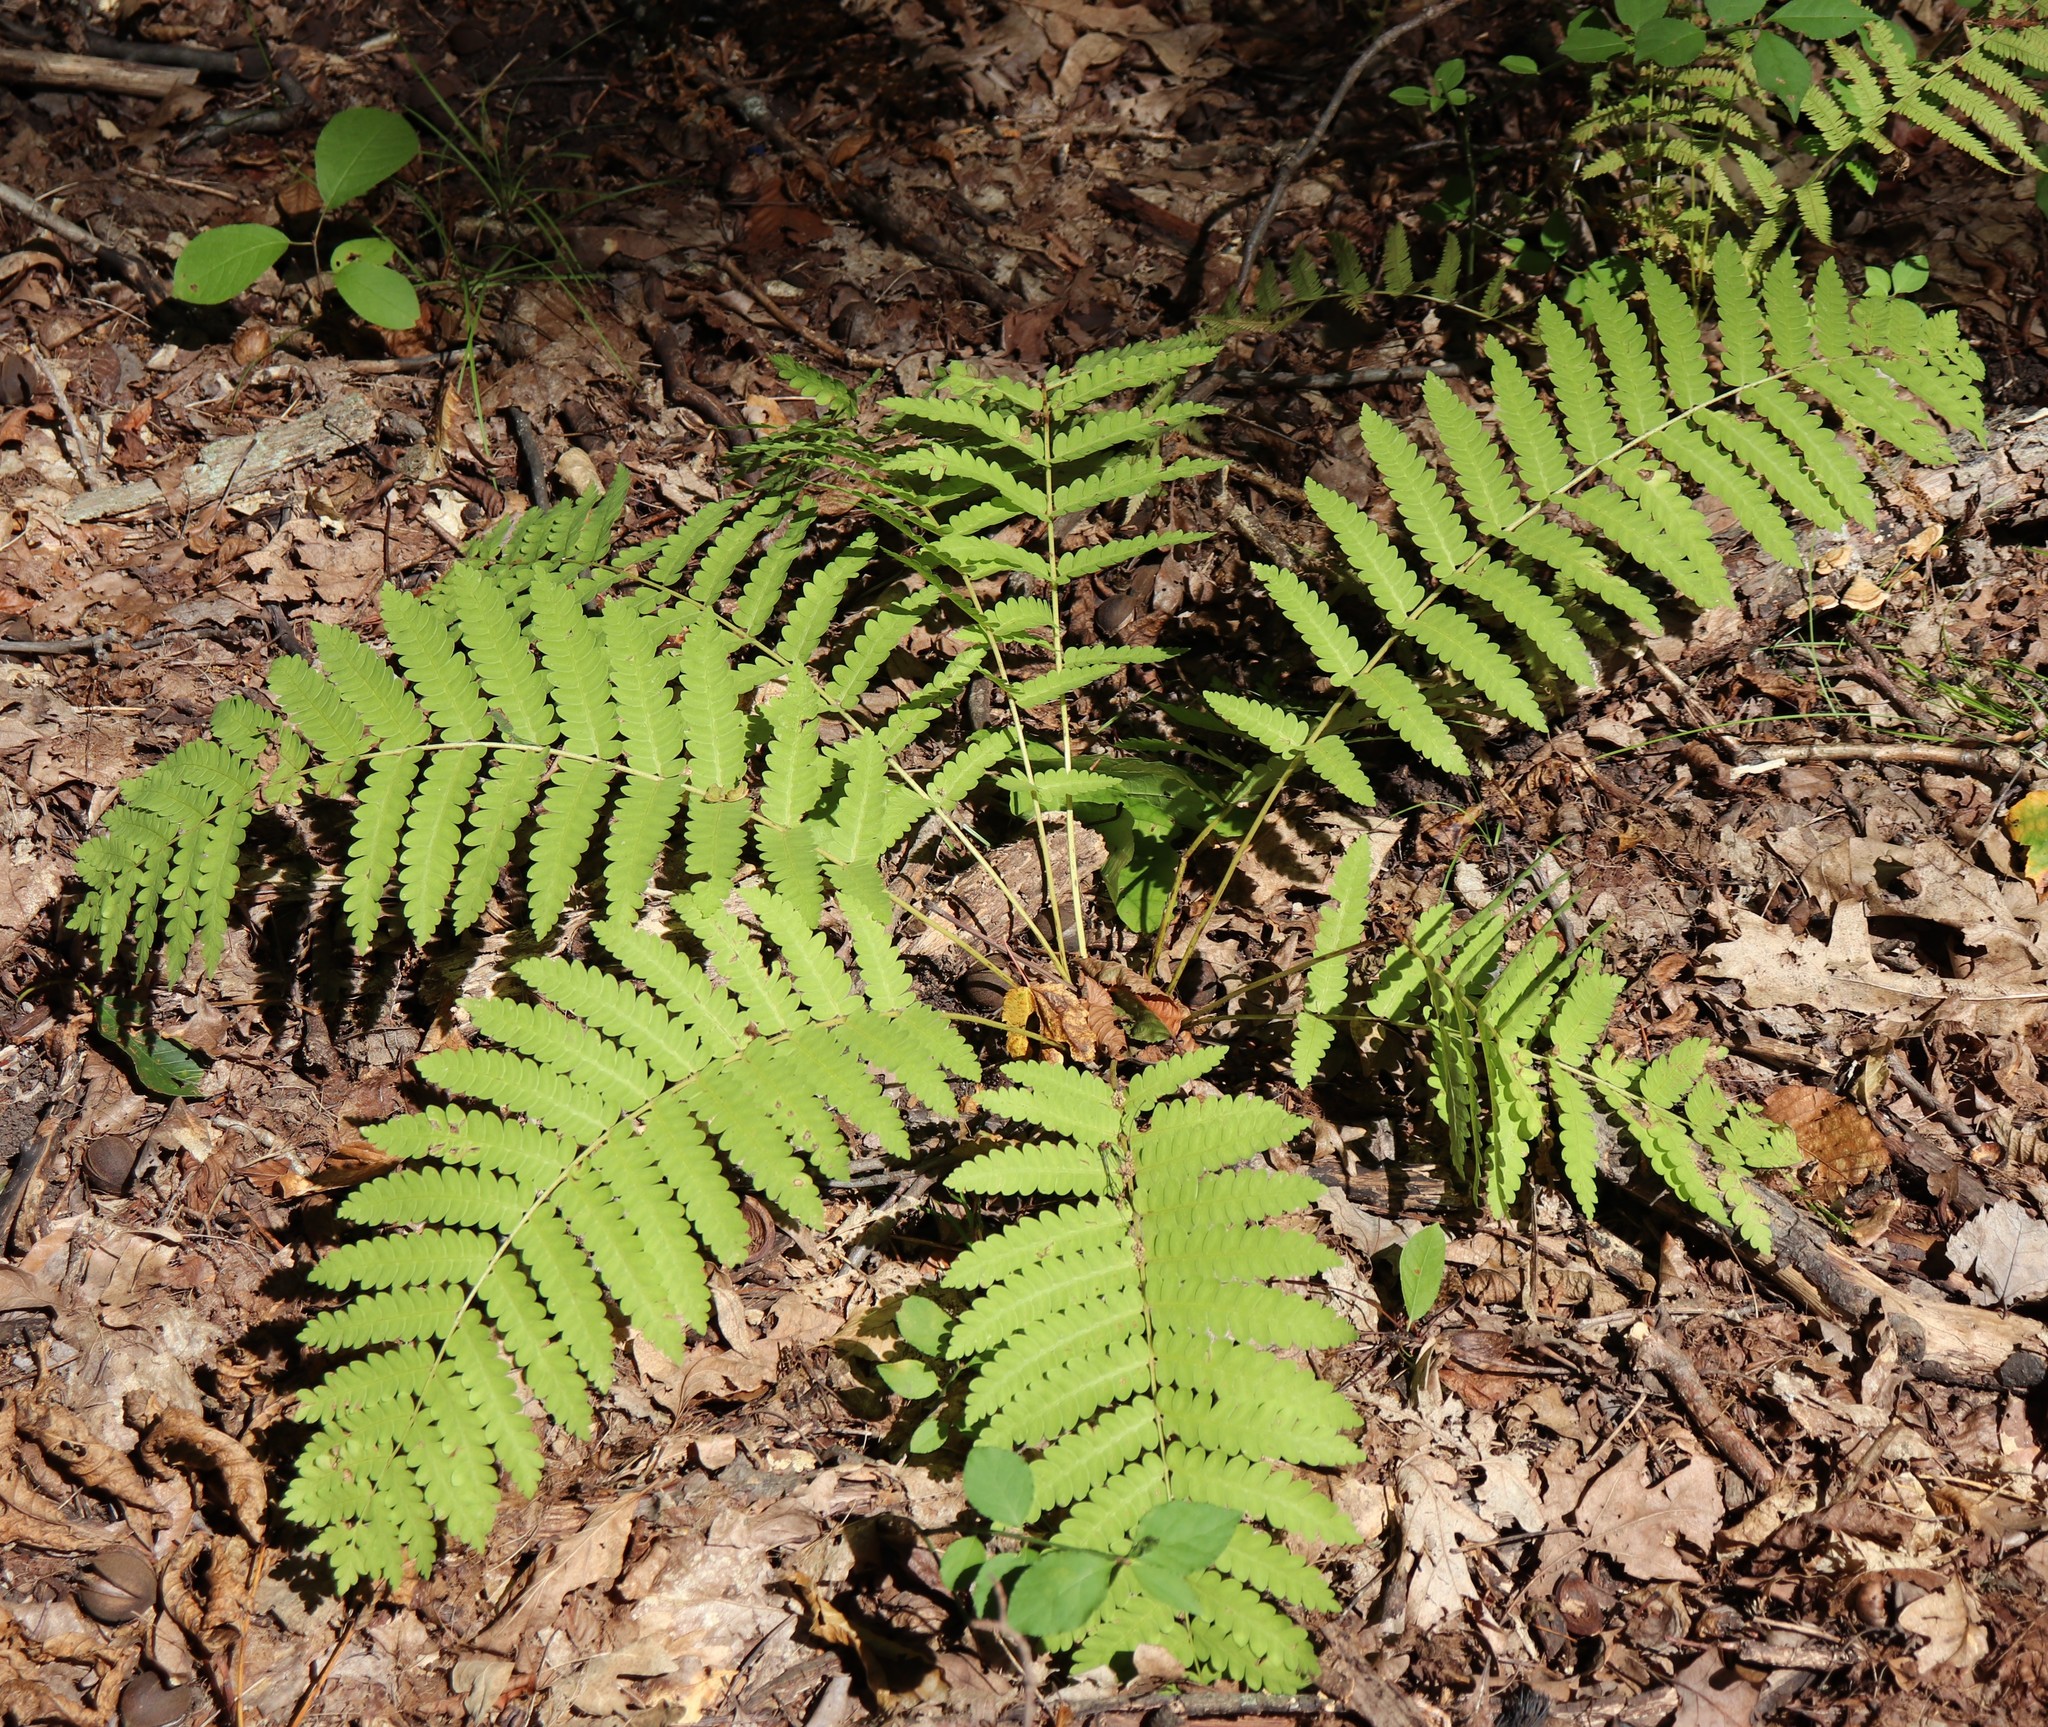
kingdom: Plantae
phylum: Tracheophyta
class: Polypodiopsida
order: Osmundales
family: Osmundaceae
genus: Claytosmunda
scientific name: Claytosmunda claytoniana
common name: Clayton's fern
